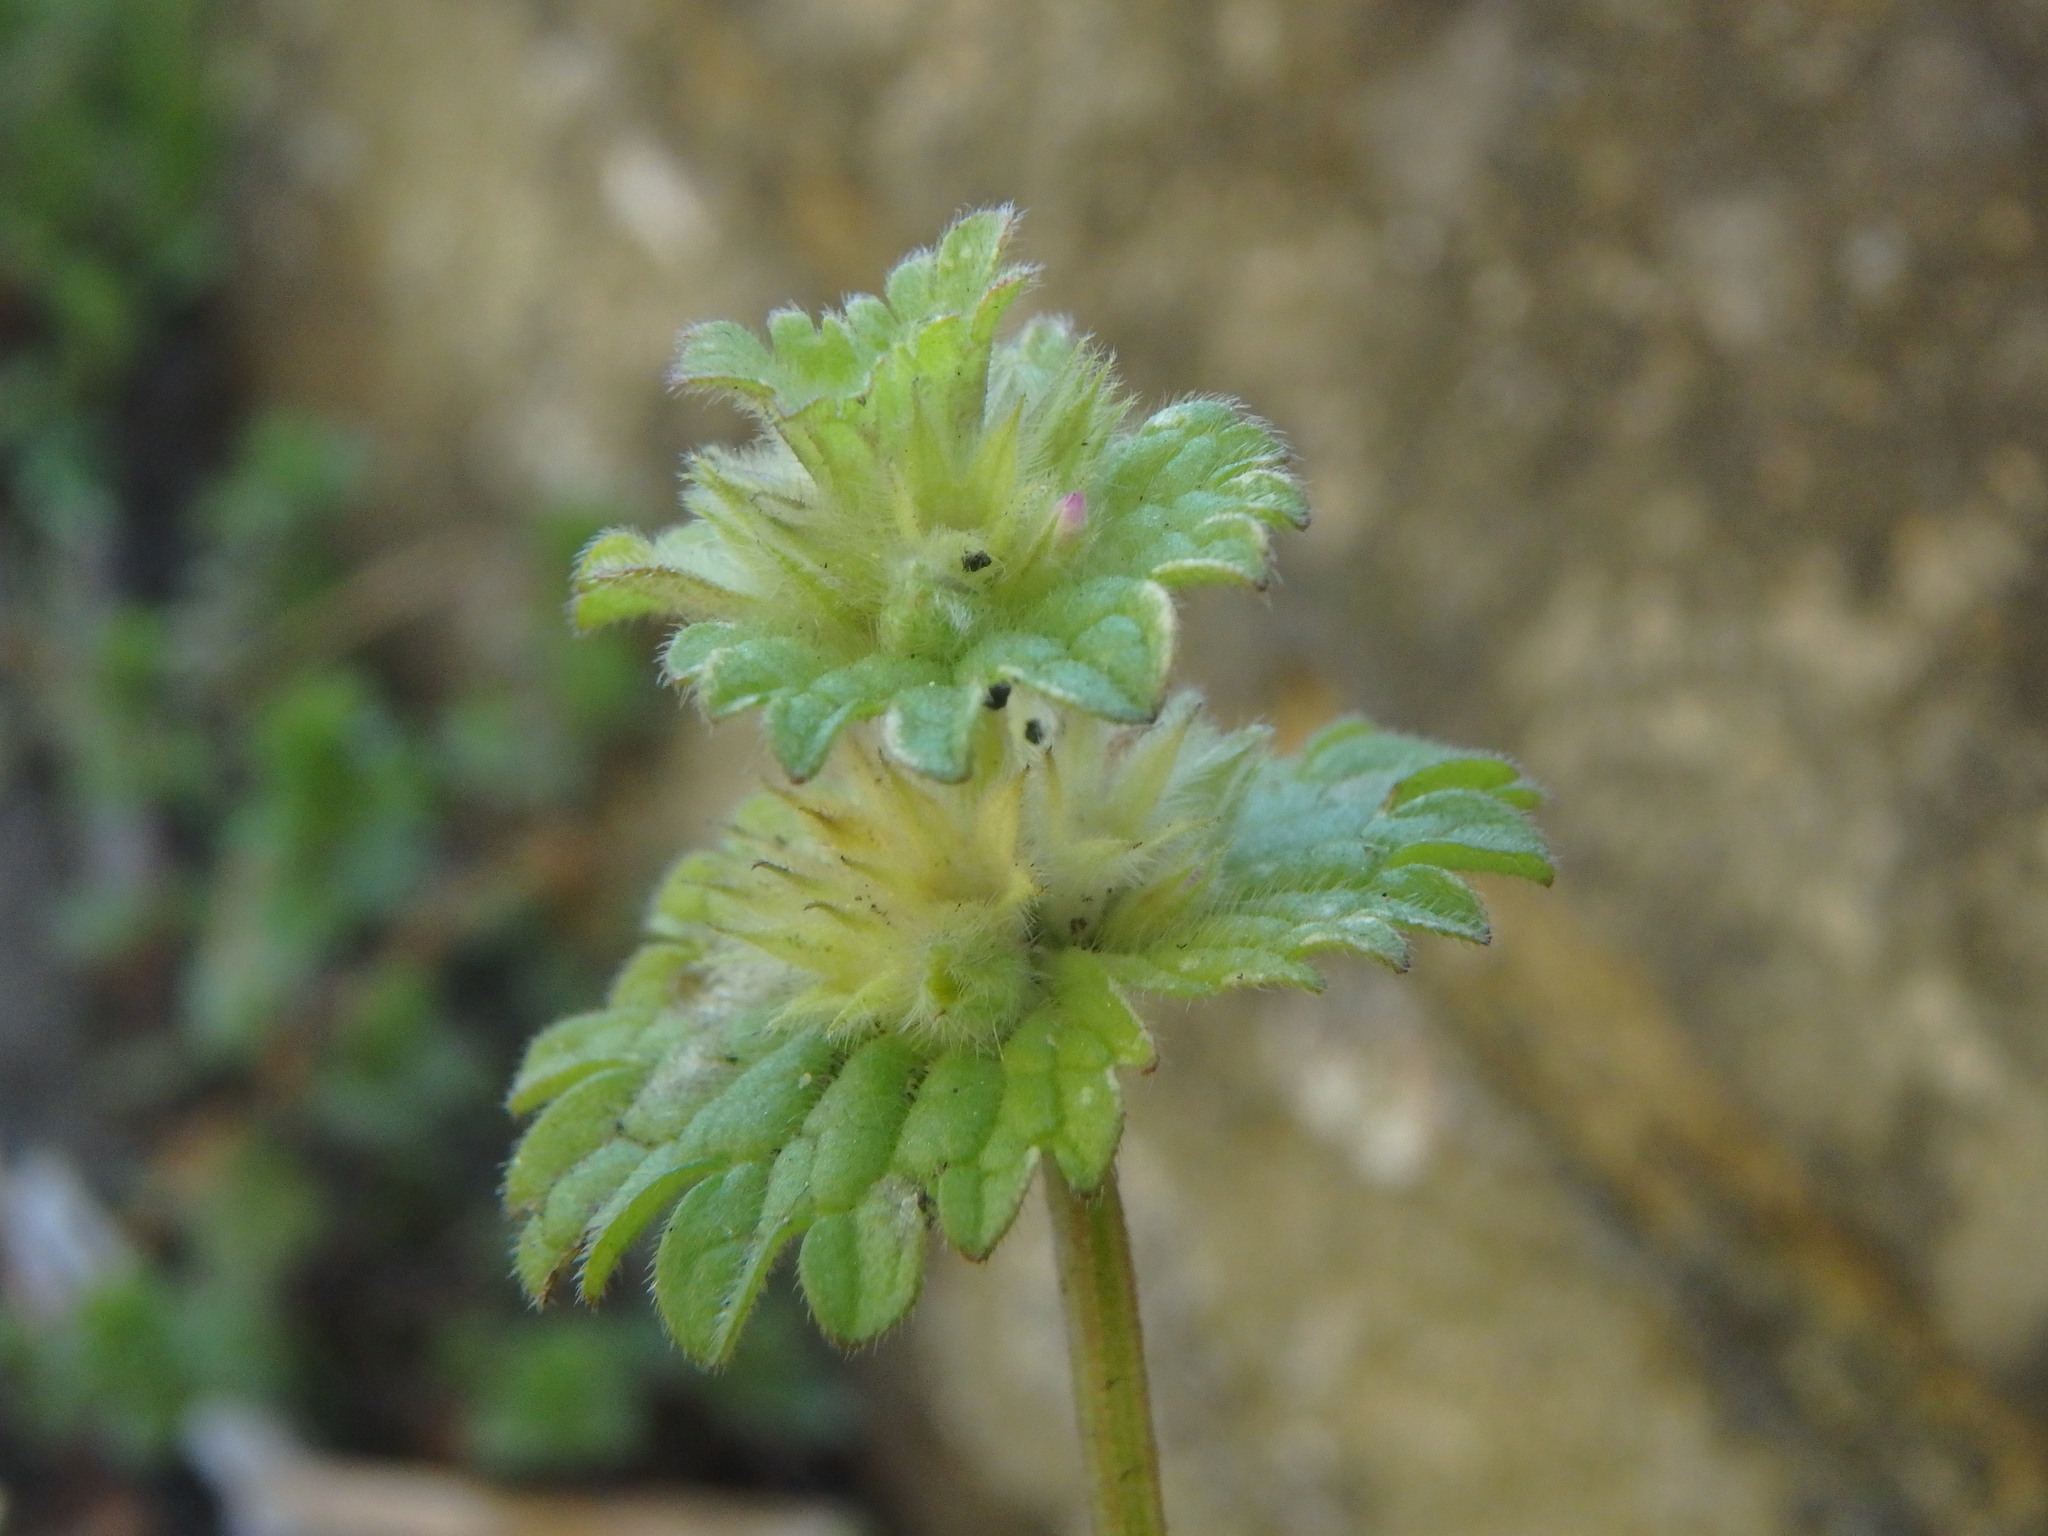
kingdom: Plantae
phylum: Tracheophyta
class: Magnoliopsida
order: Lamiales
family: Lamiaceae
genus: Lamium
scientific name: Lamium amplexicaule
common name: Henbit dead-nettle
